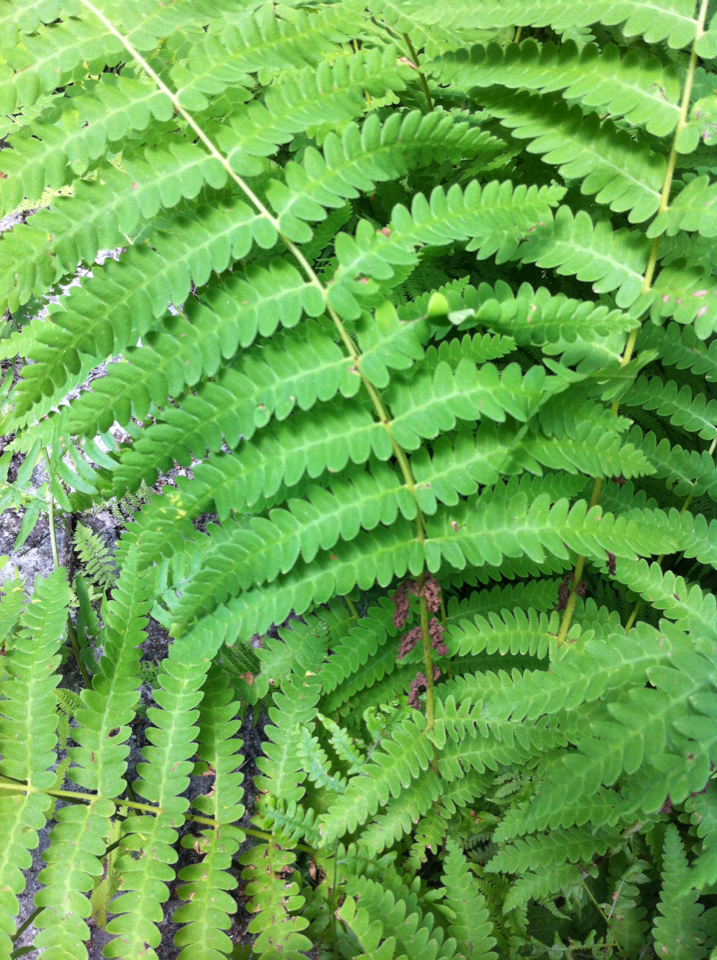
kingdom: Plantae
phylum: Tracheophyta
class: Polypodiopsida
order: Osmundales
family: Osmundaceae
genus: Claytosmunda
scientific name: Claytosmunda claytoniana
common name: Clayton's fern
